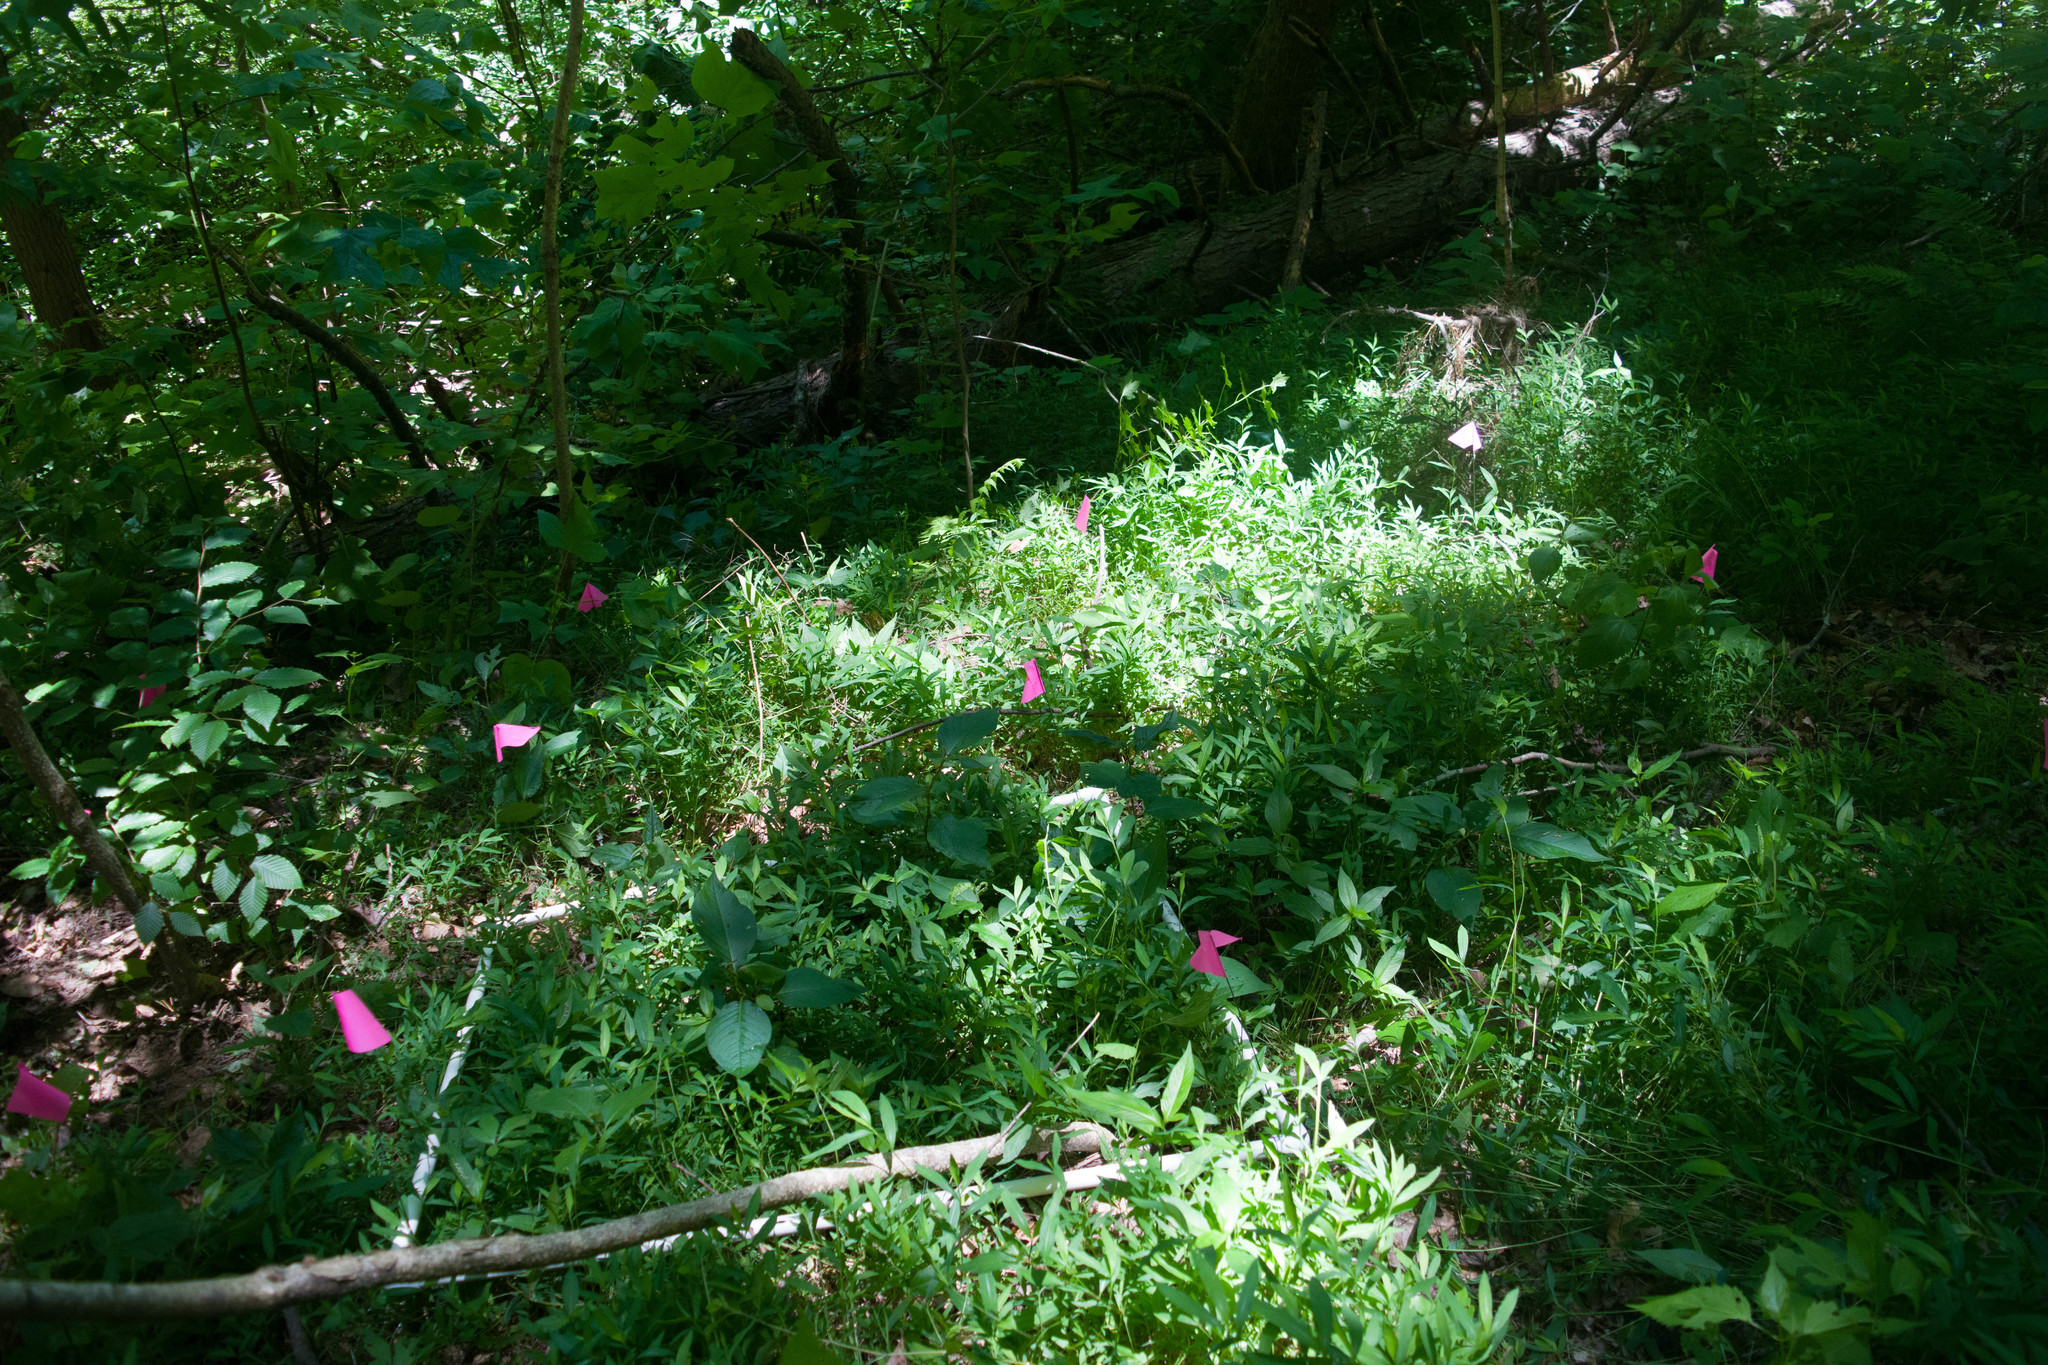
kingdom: Plantae
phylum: Tracheophyta
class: Liliopsida
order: Poales
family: Poaceae
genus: Microstegium
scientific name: Microstegium vimineum
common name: Japanese stiltgrass
